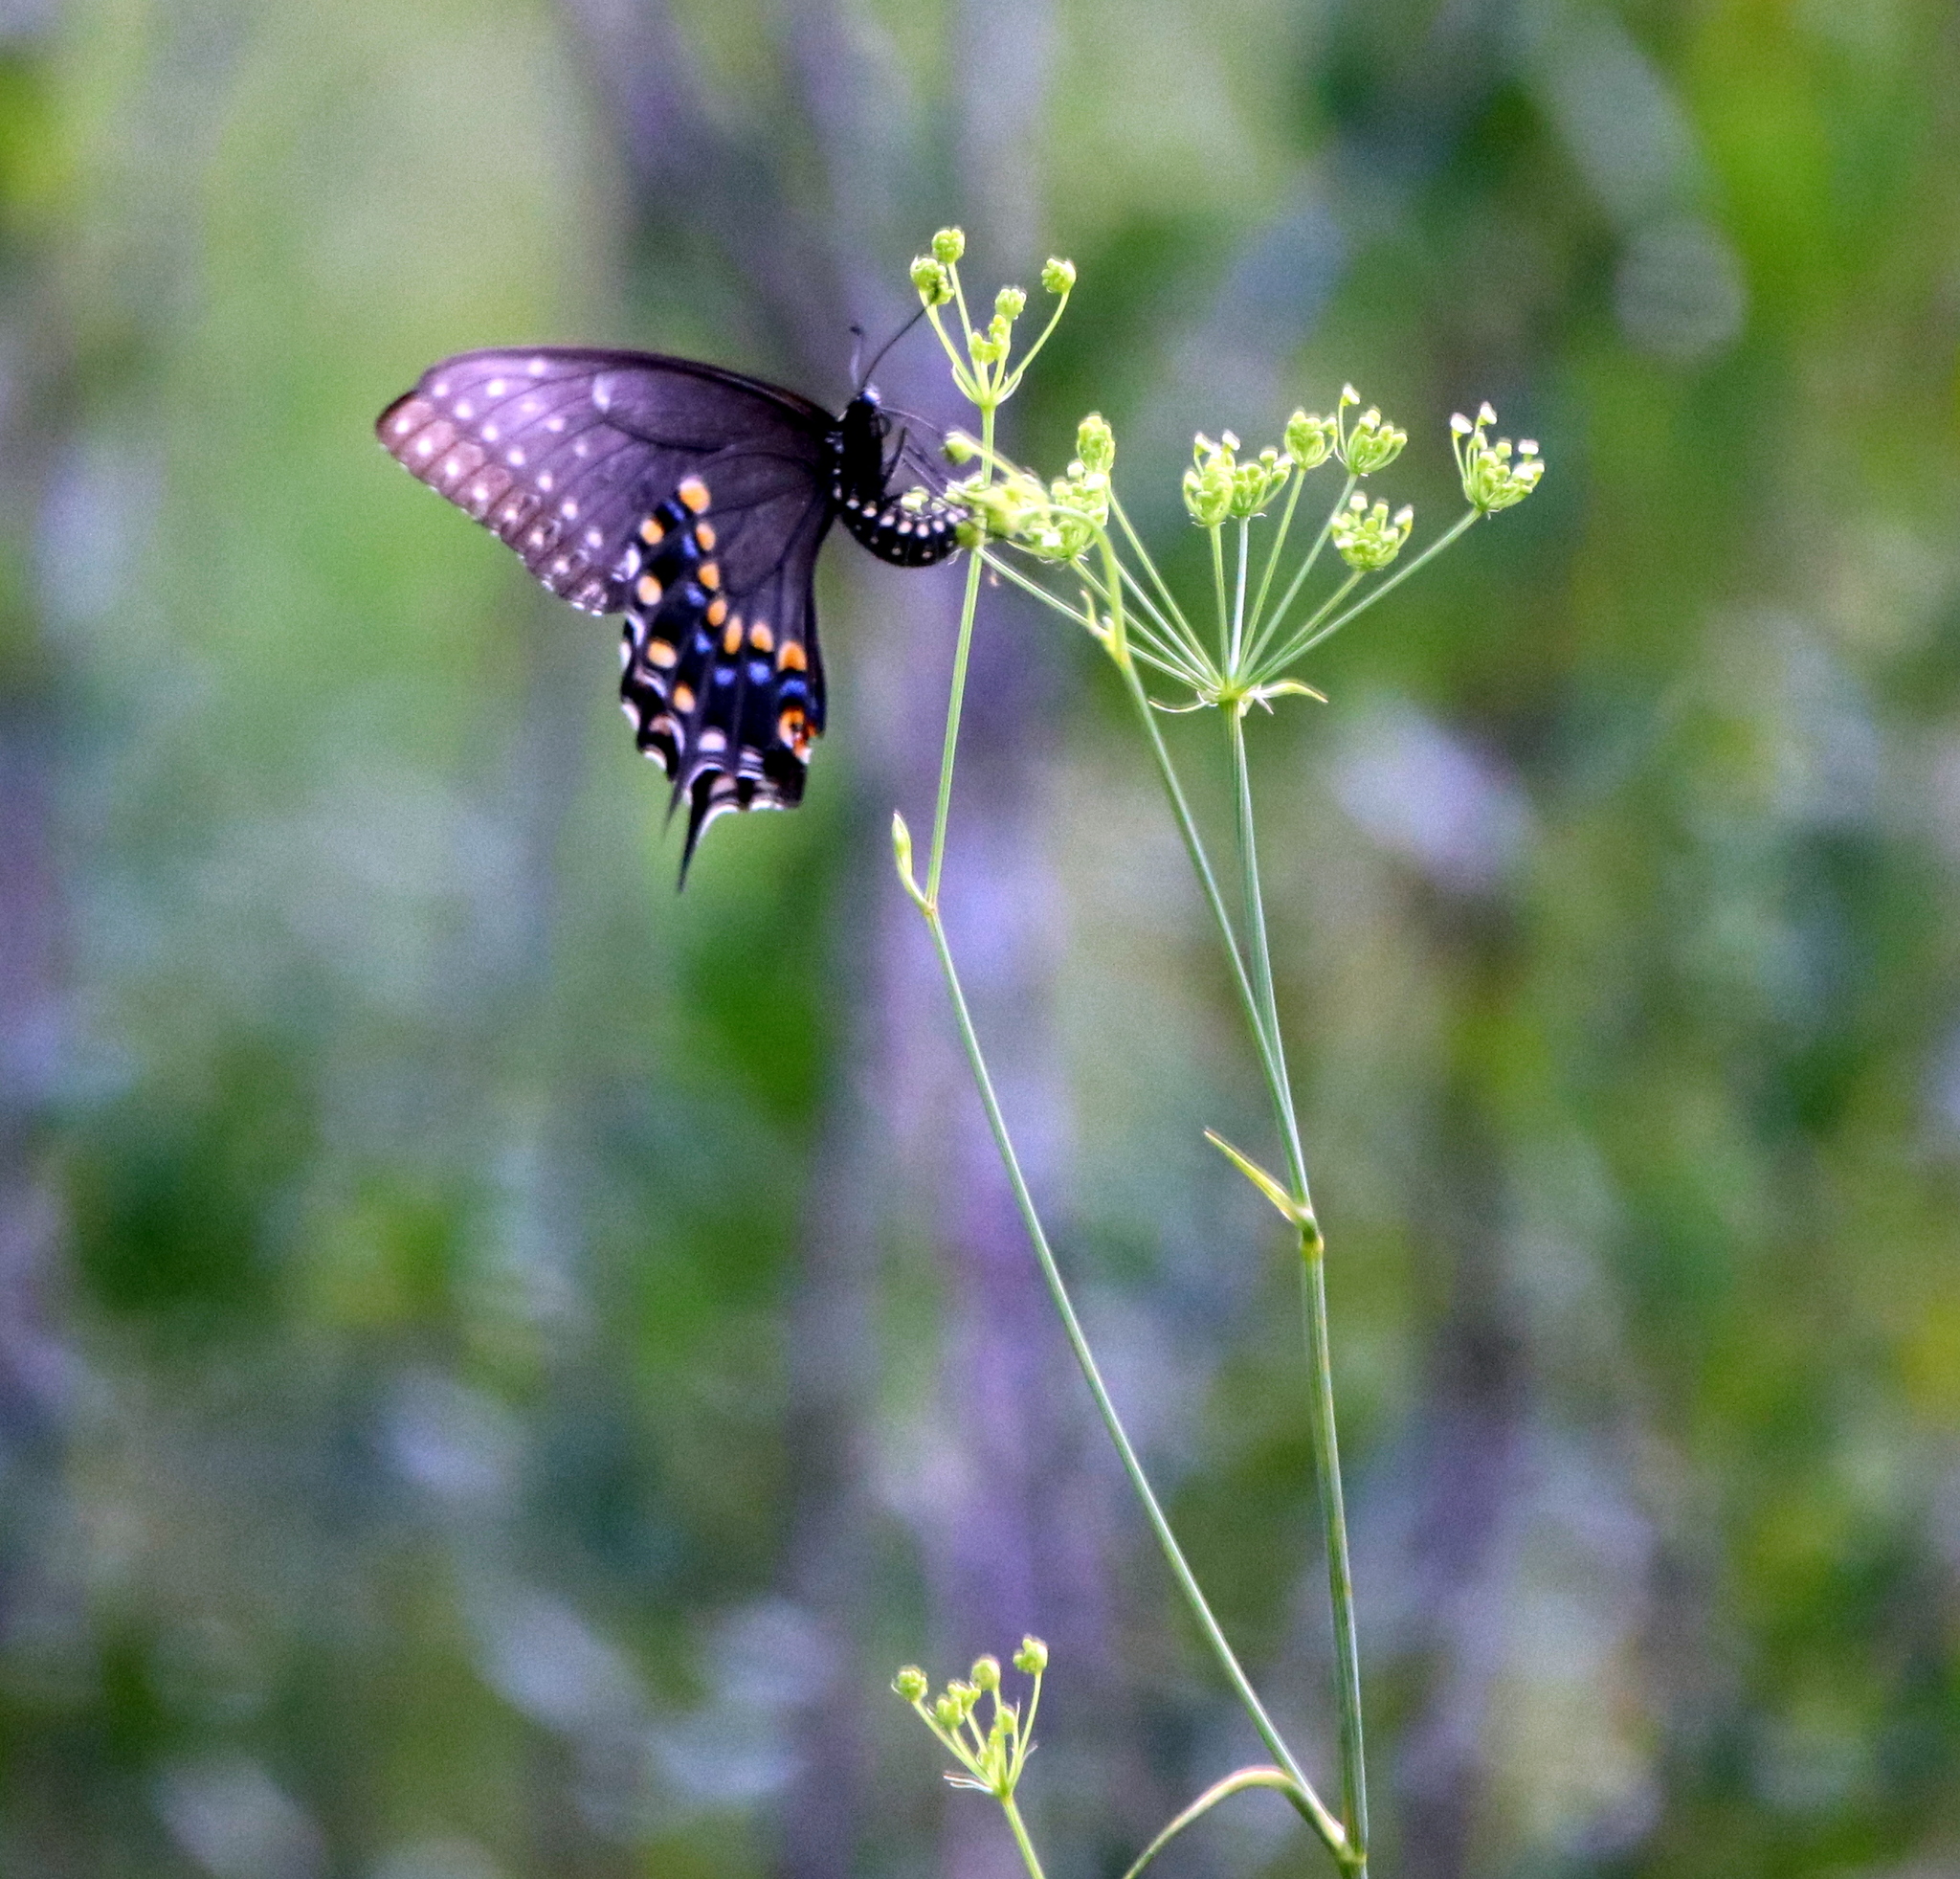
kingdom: Animalia
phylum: Arthropoda
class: Insecta
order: Lepidoptera
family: Papilionidae
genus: Papilio
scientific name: Papilio polyxenes
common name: Black swallowtail
